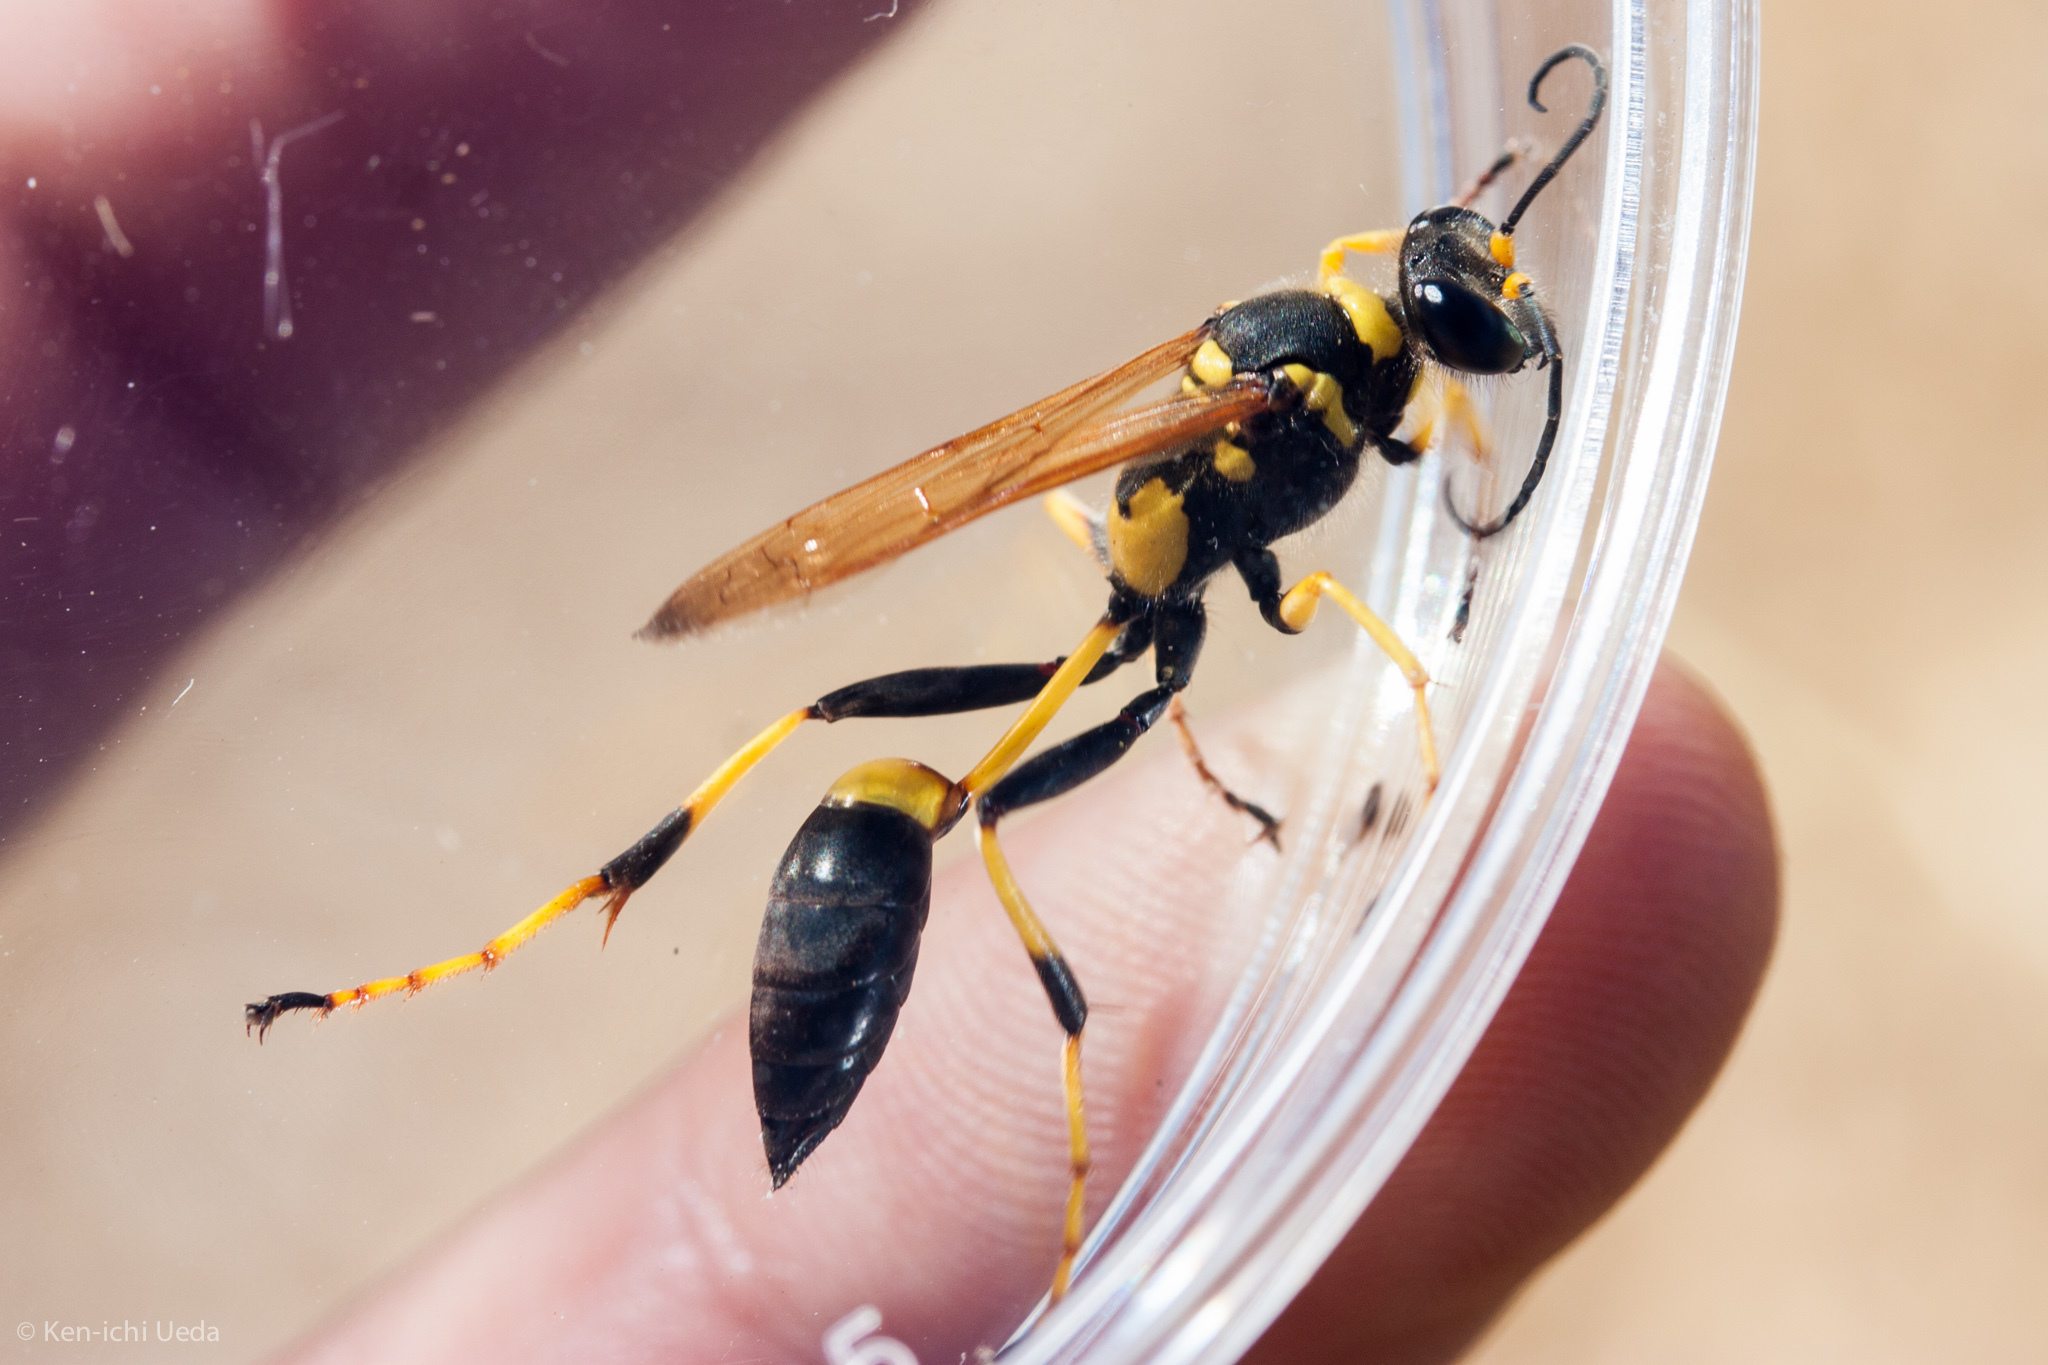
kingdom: Animalia
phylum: Arthropoda
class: Insecta
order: Hymenoptera
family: Sphecidae
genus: Sceliphron
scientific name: Sceliphron caementarium
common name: Mud dauber
